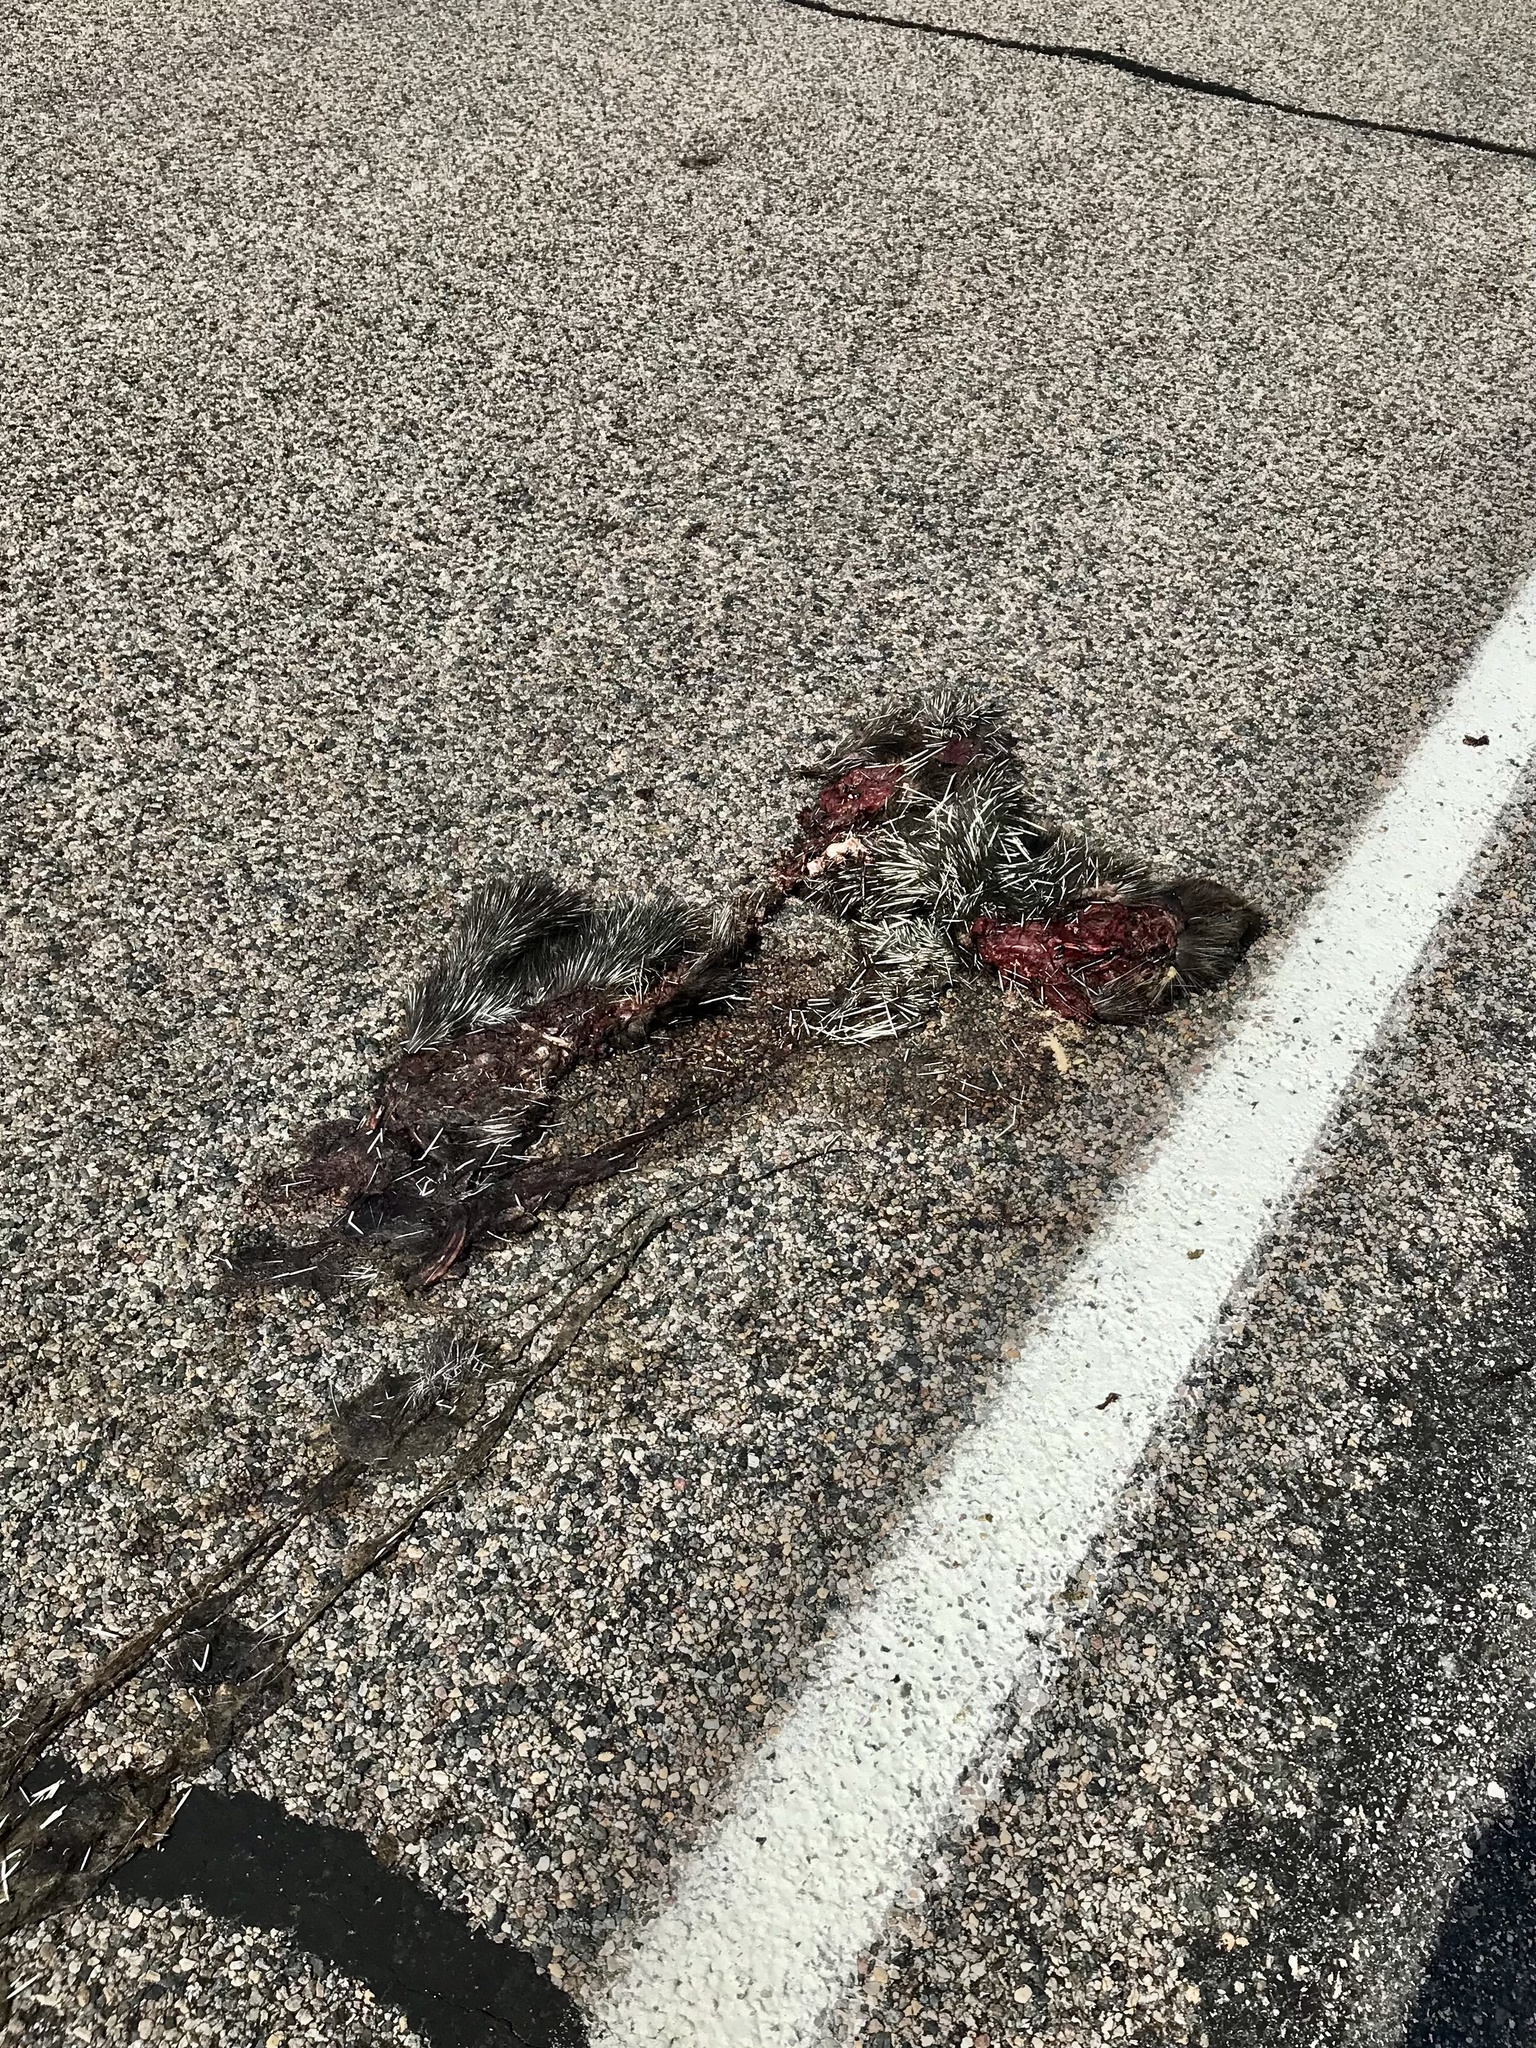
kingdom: Animalia
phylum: Chordata
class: Mammalia
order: Rodentia
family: Erethizontidae
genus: Erethizon
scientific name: Erethizon dorsatus
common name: North american porcupine
